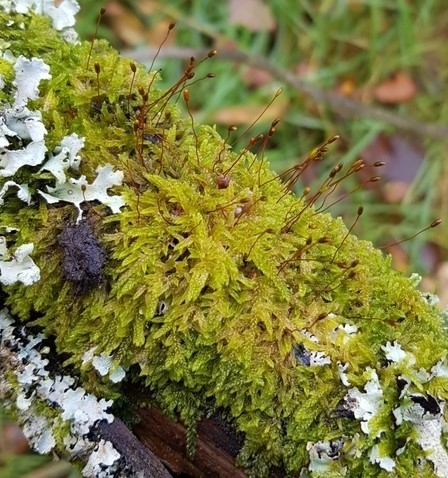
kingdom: Plantae
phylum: Bryophyta
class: Bryopsida
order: Hypnales
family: Hypnaceae
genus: Hypnum
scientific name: Hypnum cupressiforme
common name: Cypress-leaved plait-moss
